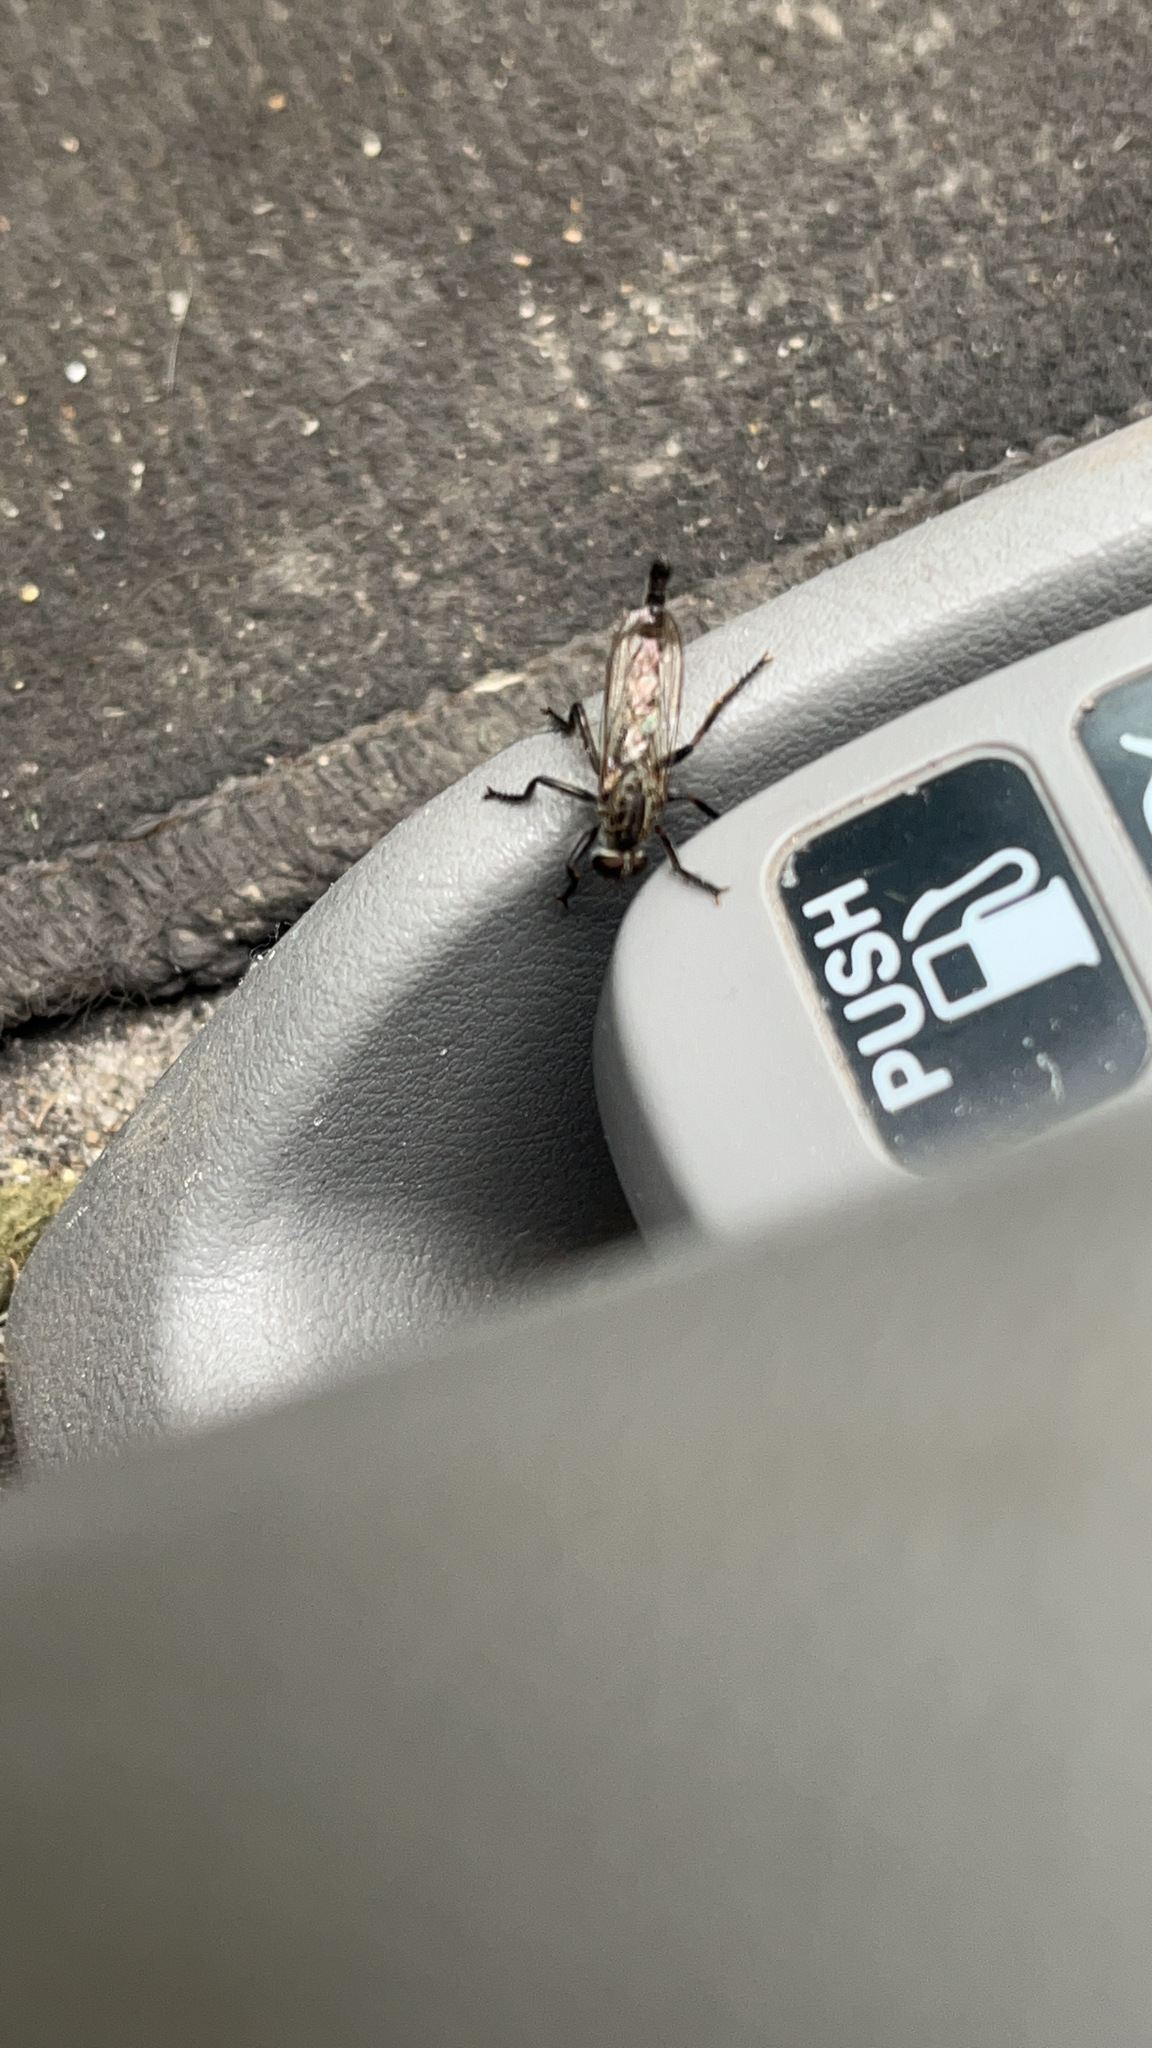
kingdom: Animalia
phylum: Arthropoda
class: Insecta
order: Diptera
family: Asilidae
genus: Efferia
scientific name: Efferia aestuans
